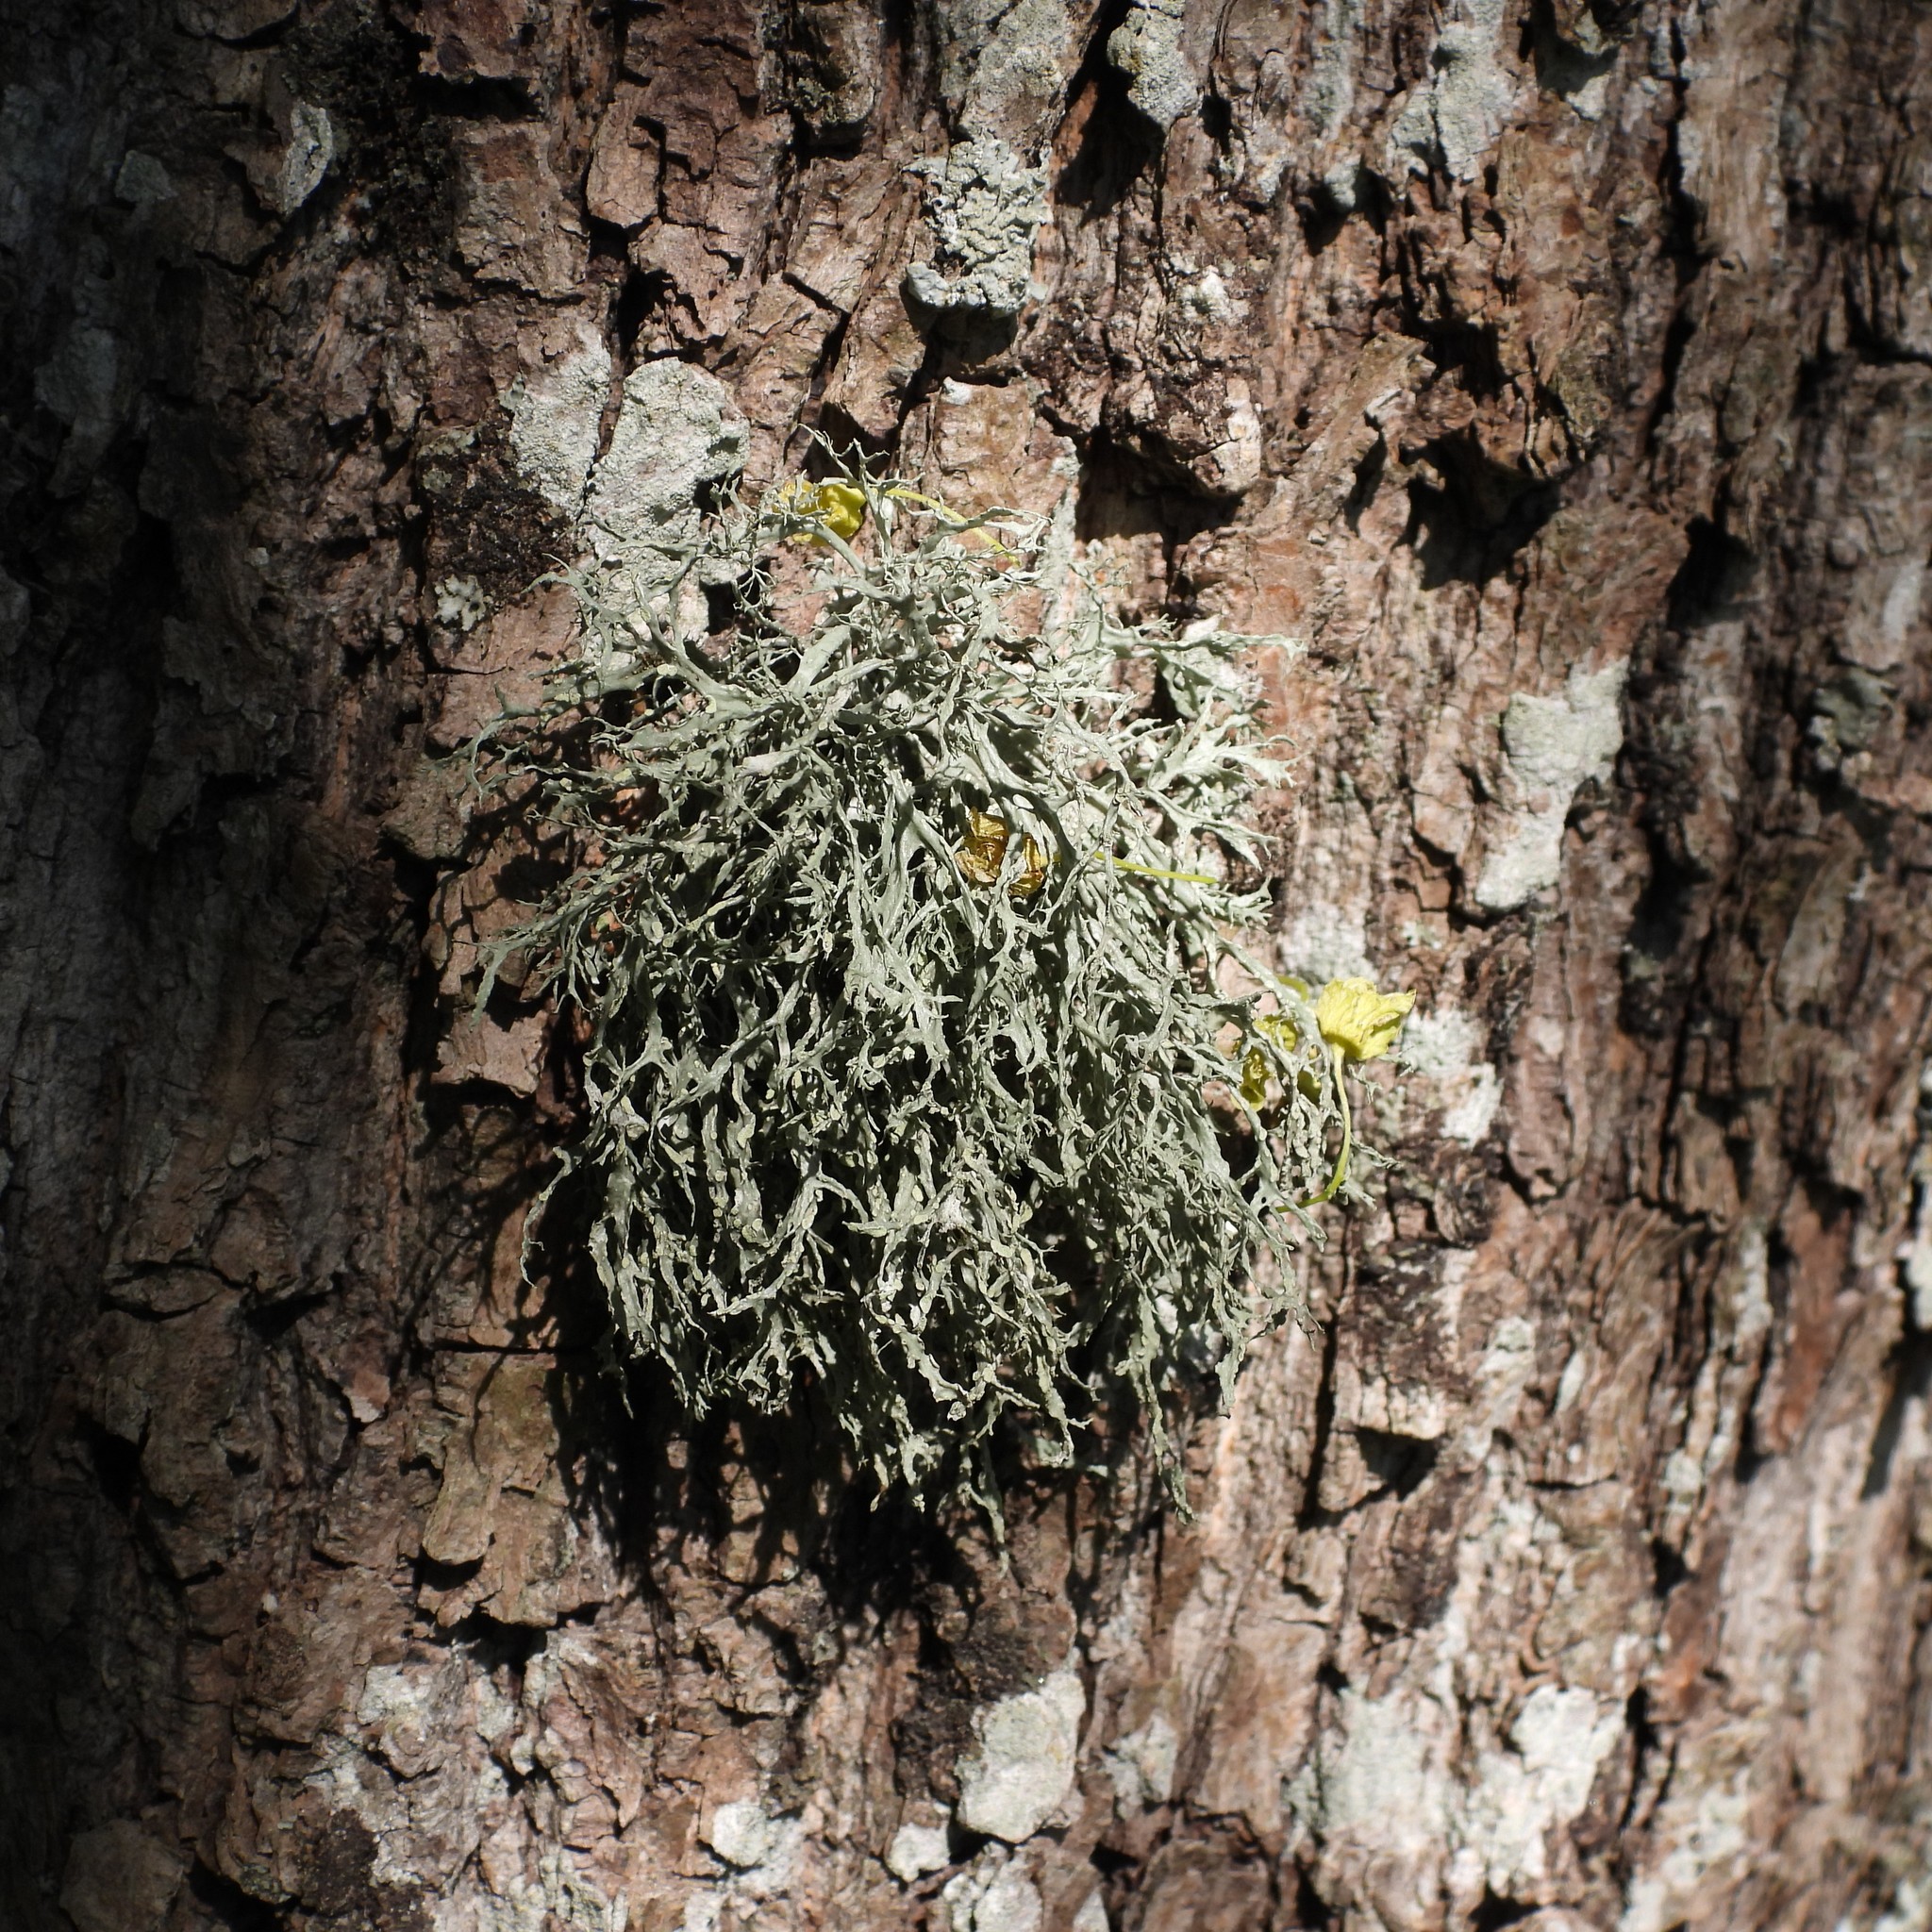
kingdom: Fungi
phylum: Ascomycota
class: Lecanoromycetes
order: Lecanorales
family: Ramalinaceae
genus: Ramalina
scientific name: Ramalina farinacea
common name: Farinose cartilage lichen
